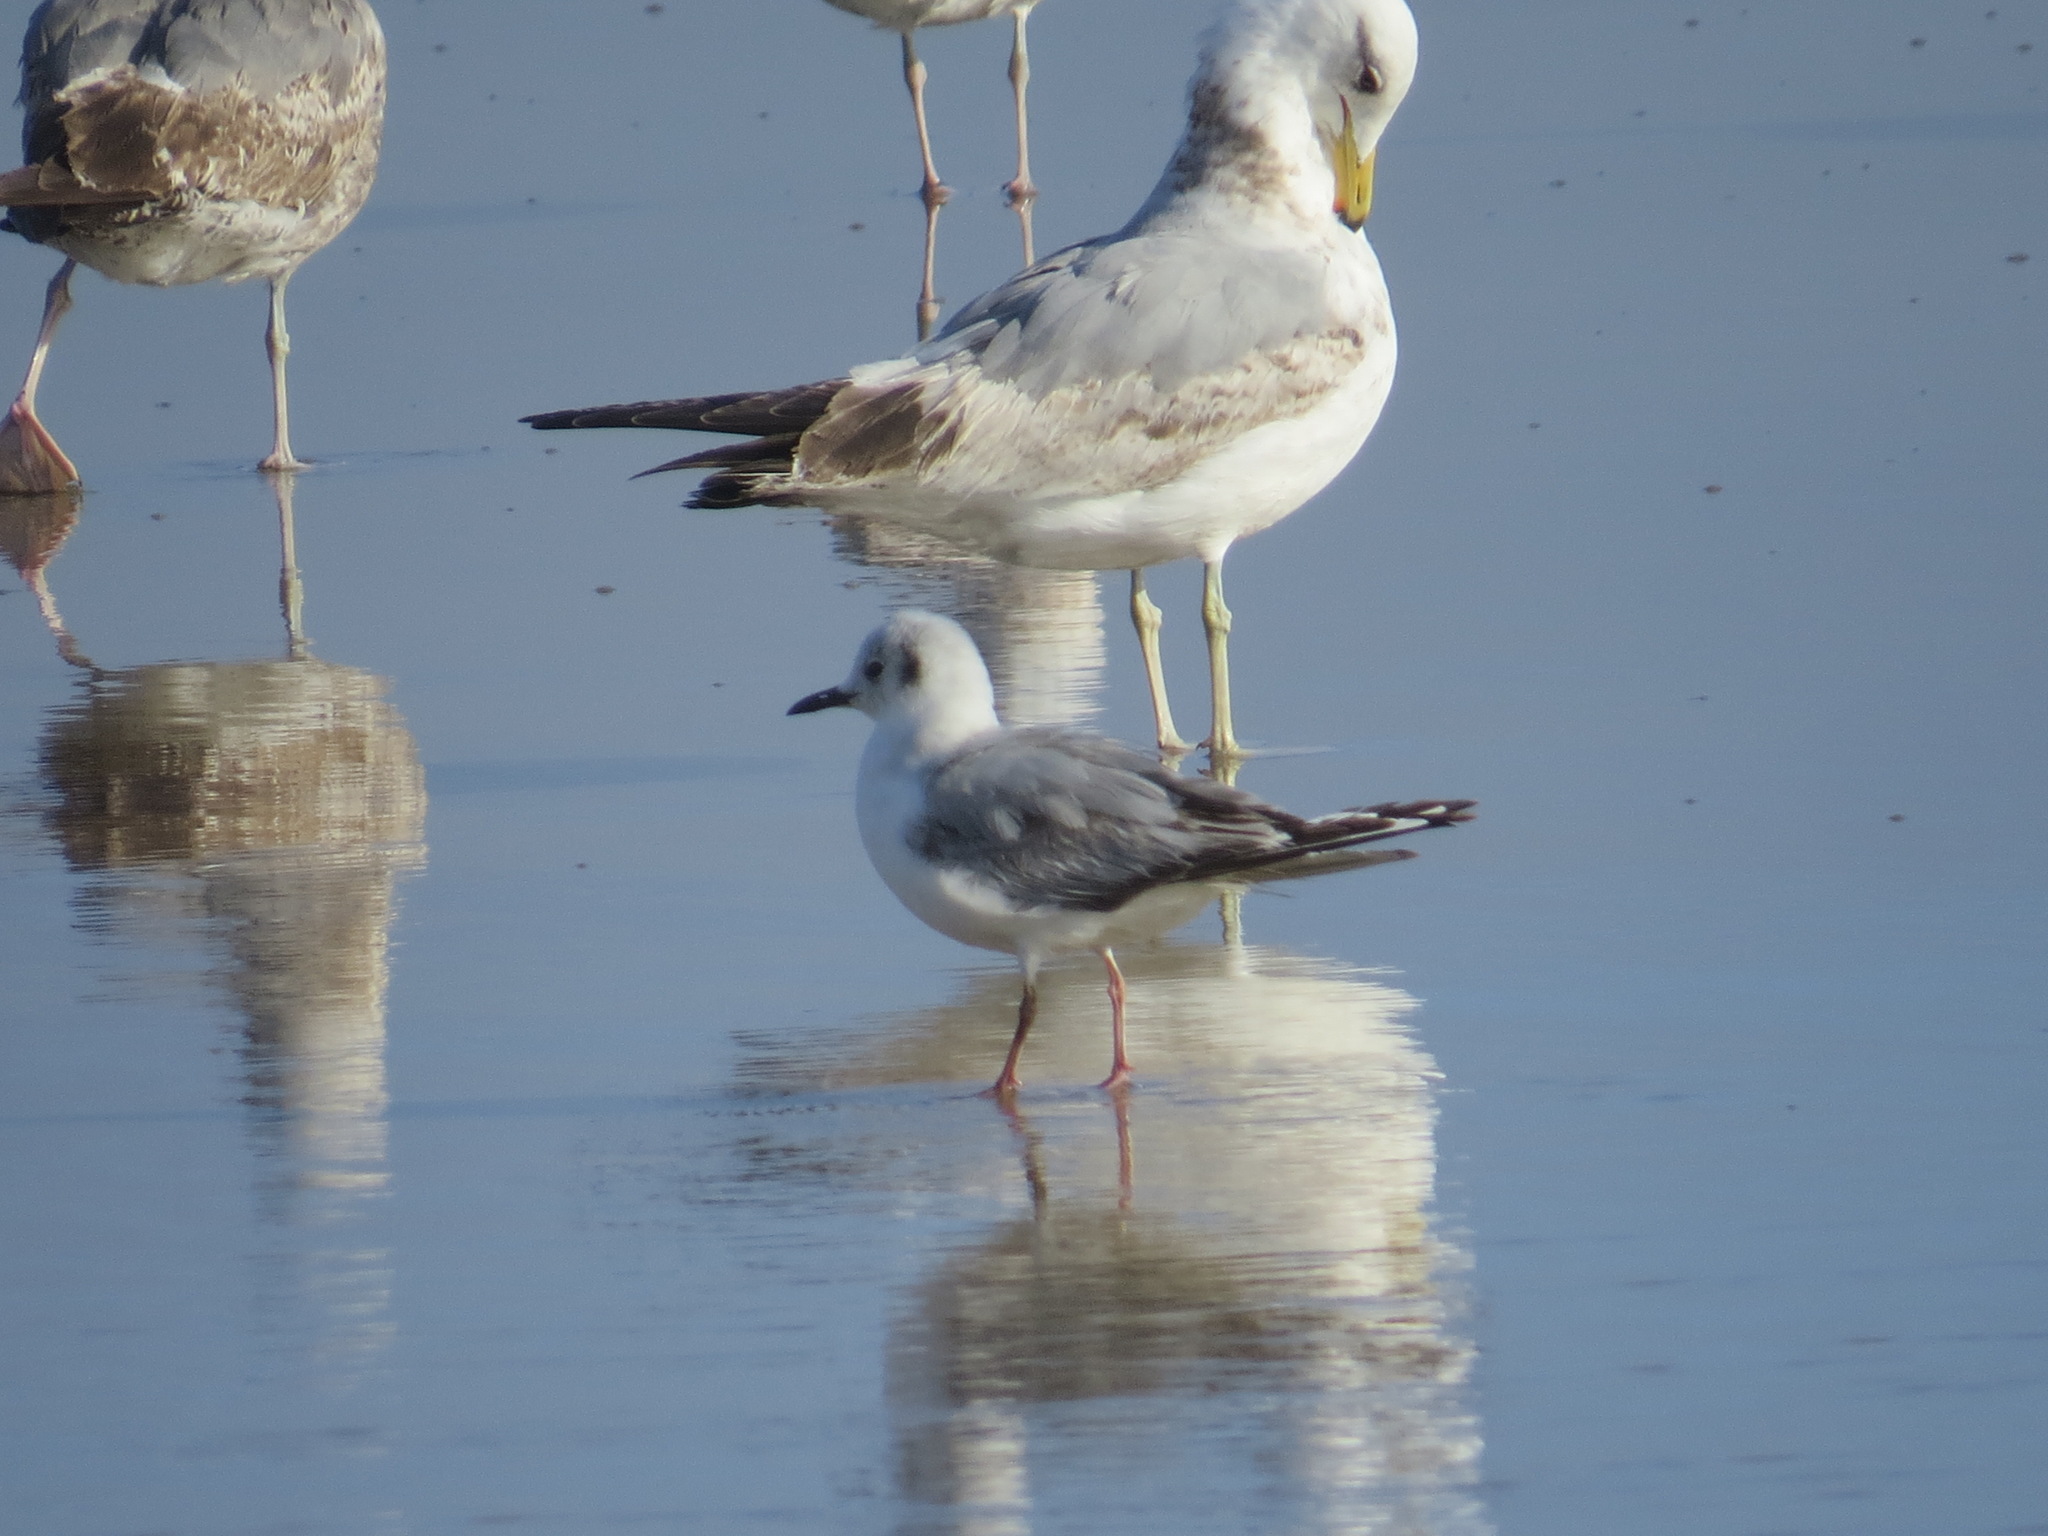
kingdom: Animalia
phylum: Chordata
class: Aves
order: Charadriiformes
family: Laridae
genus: Chroicocephalus
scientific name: Chroicocephalus philadelphia
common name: Bonaparte's gull
